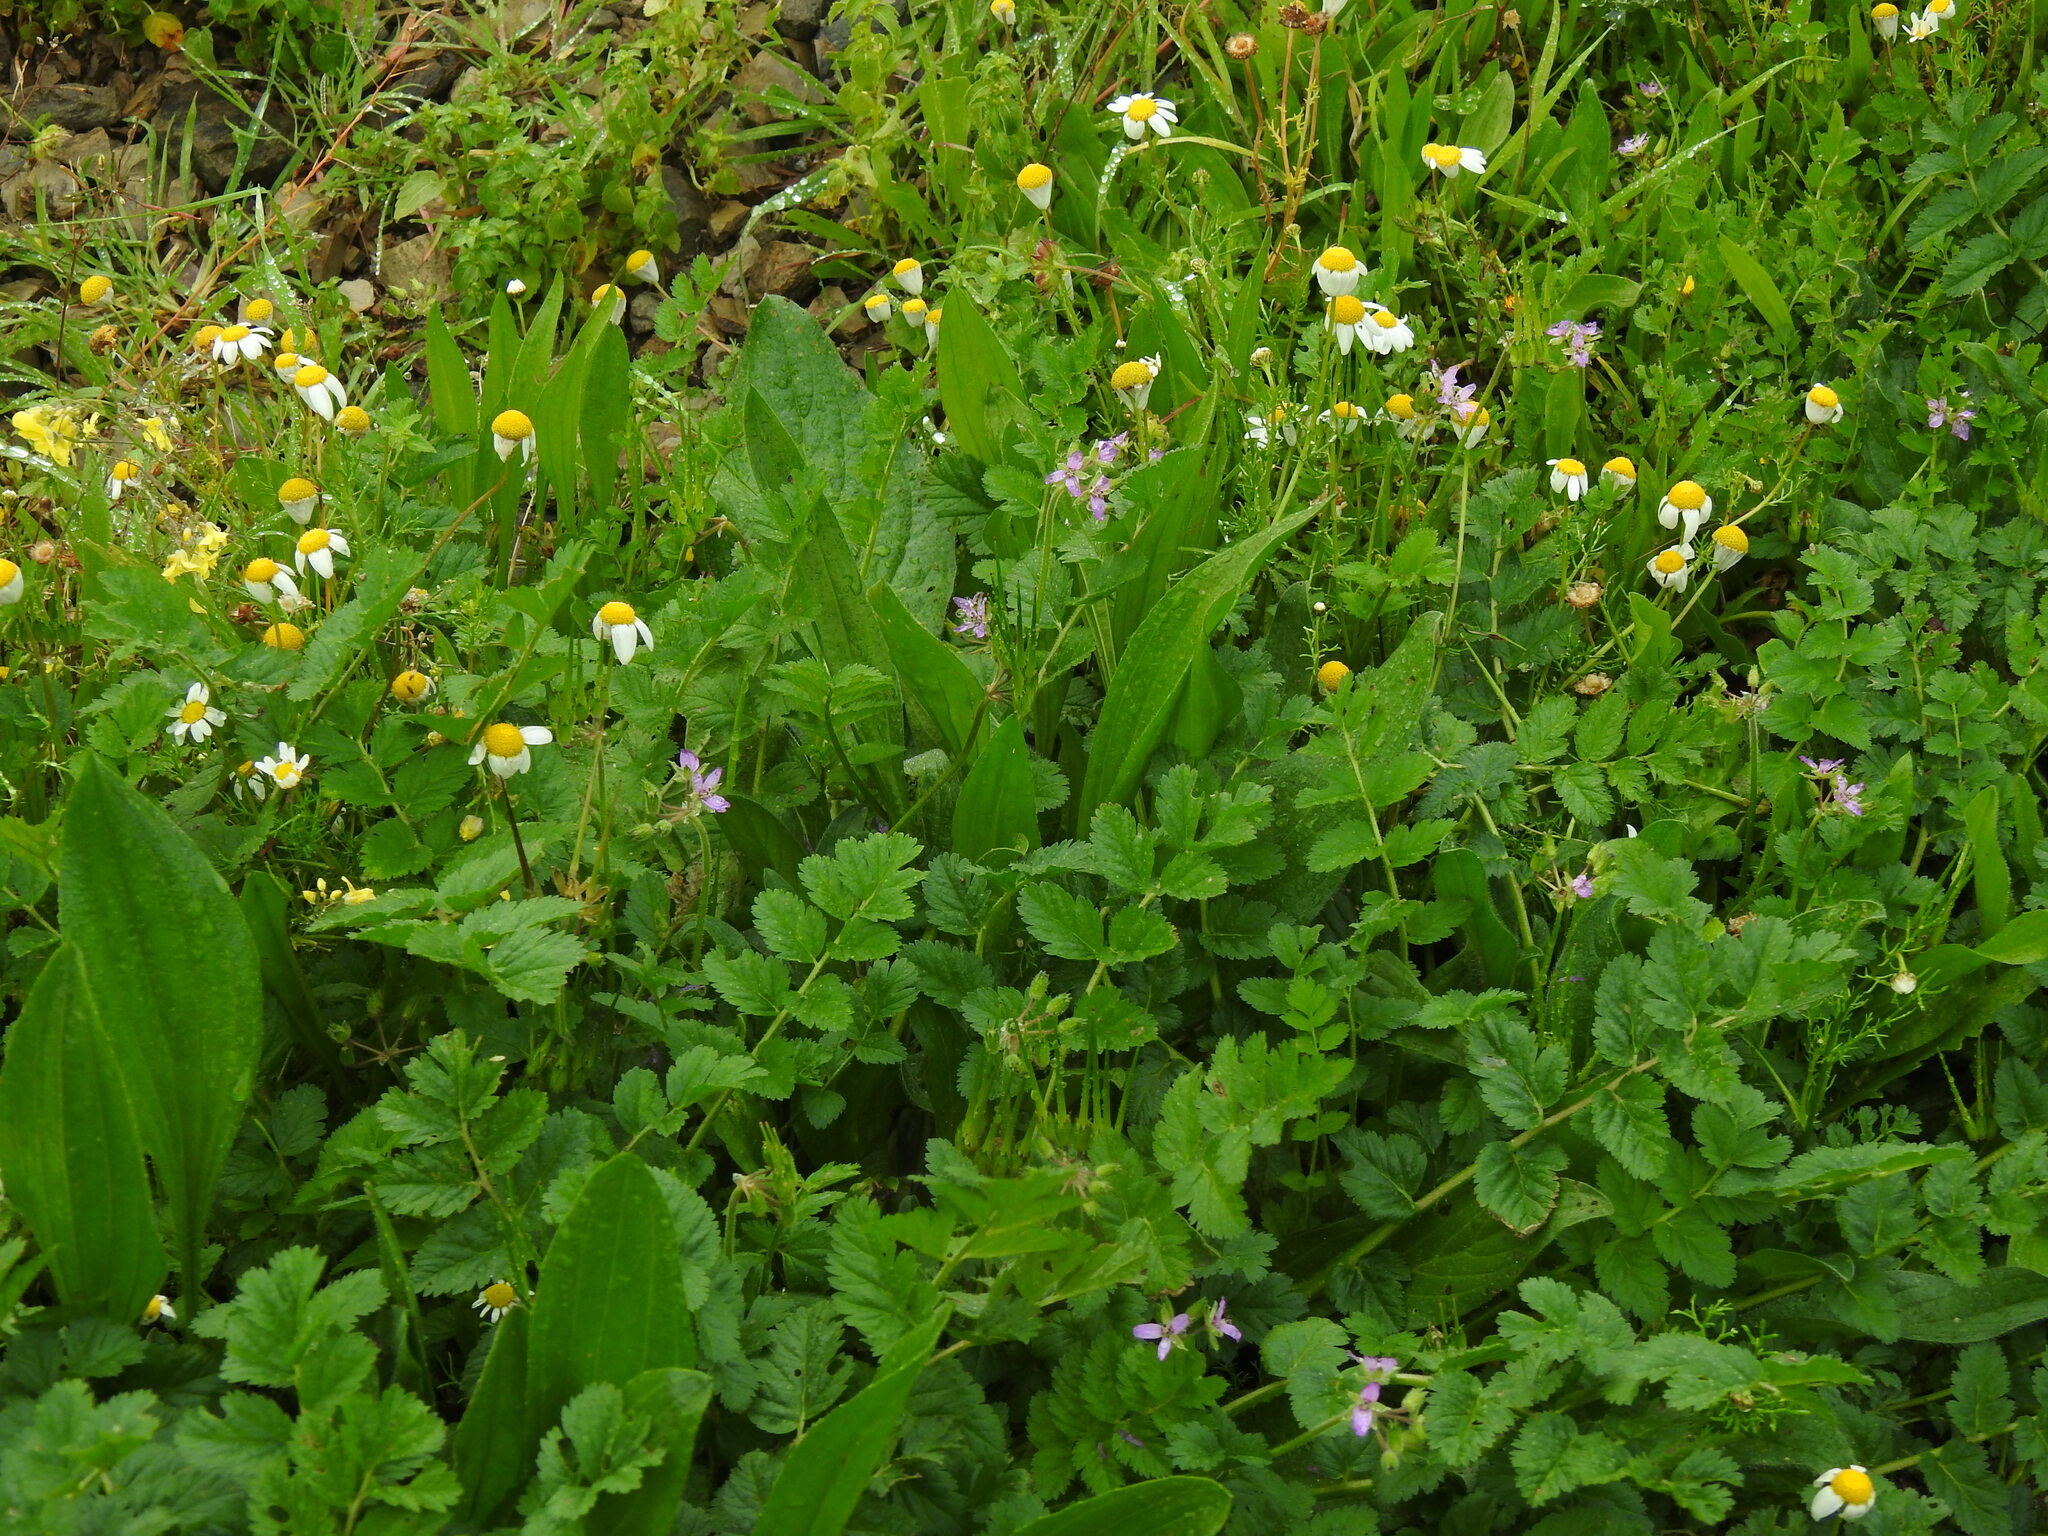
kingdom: Plantae
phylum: Tracheophyta
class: Magnoliopsida
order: Geraniales
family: Geraniaceae
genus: Erodium
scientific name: Erodium moschatum
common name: Musk stork's-bill
